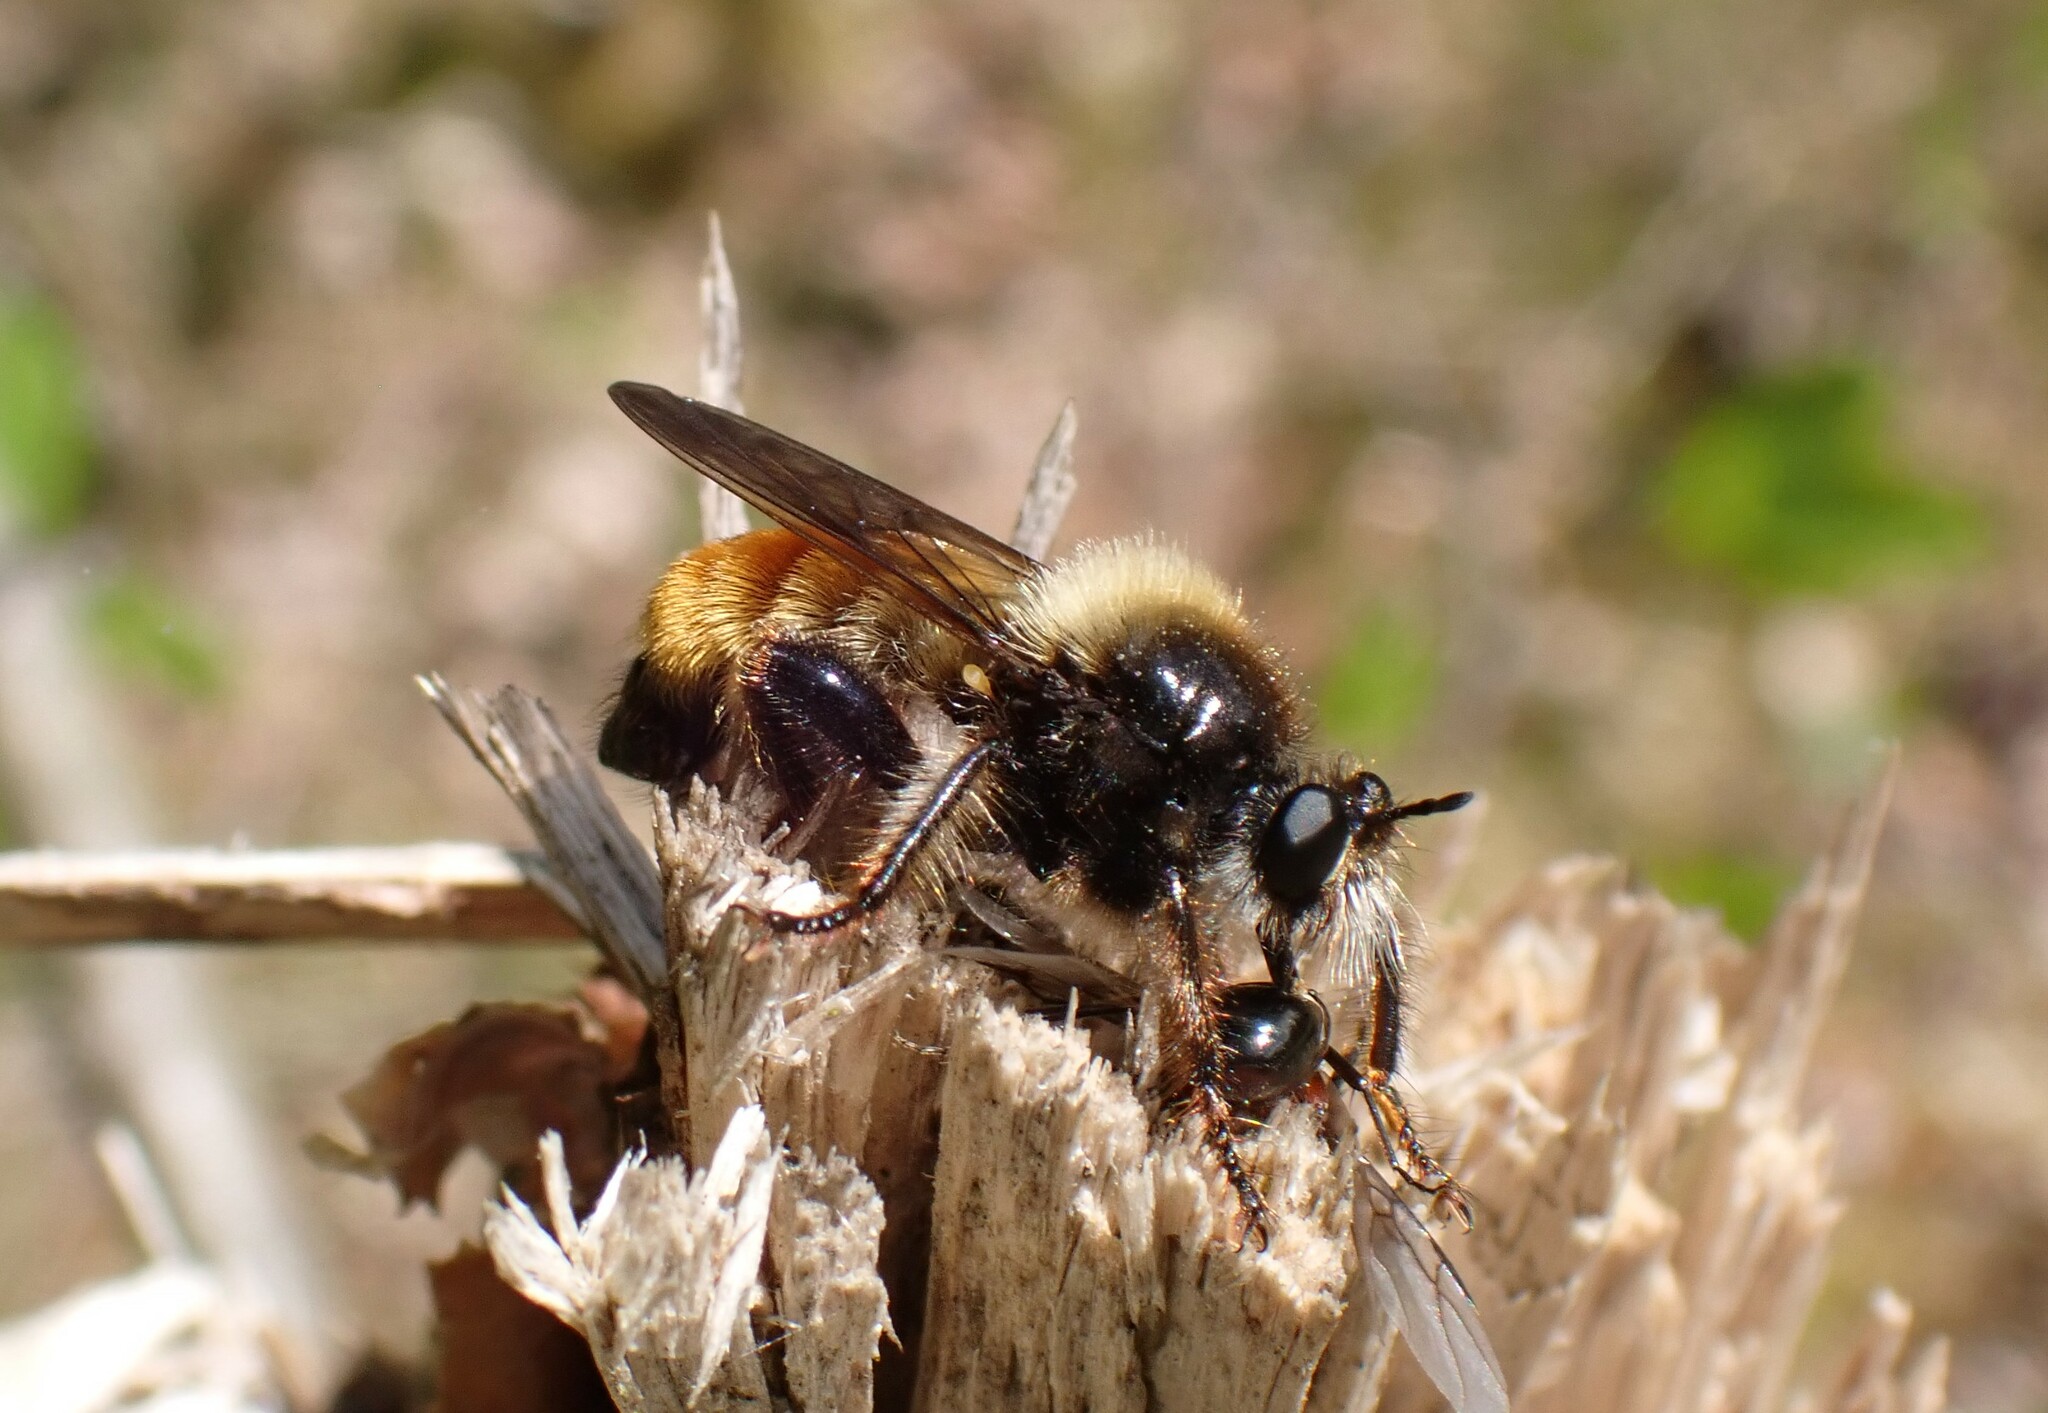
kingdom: Animalia
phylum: Arthropoda
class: Insecta
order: Diptera
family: Asilidae
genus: Laphria
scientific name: Laphria flava
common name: Bumblebee robberfly
